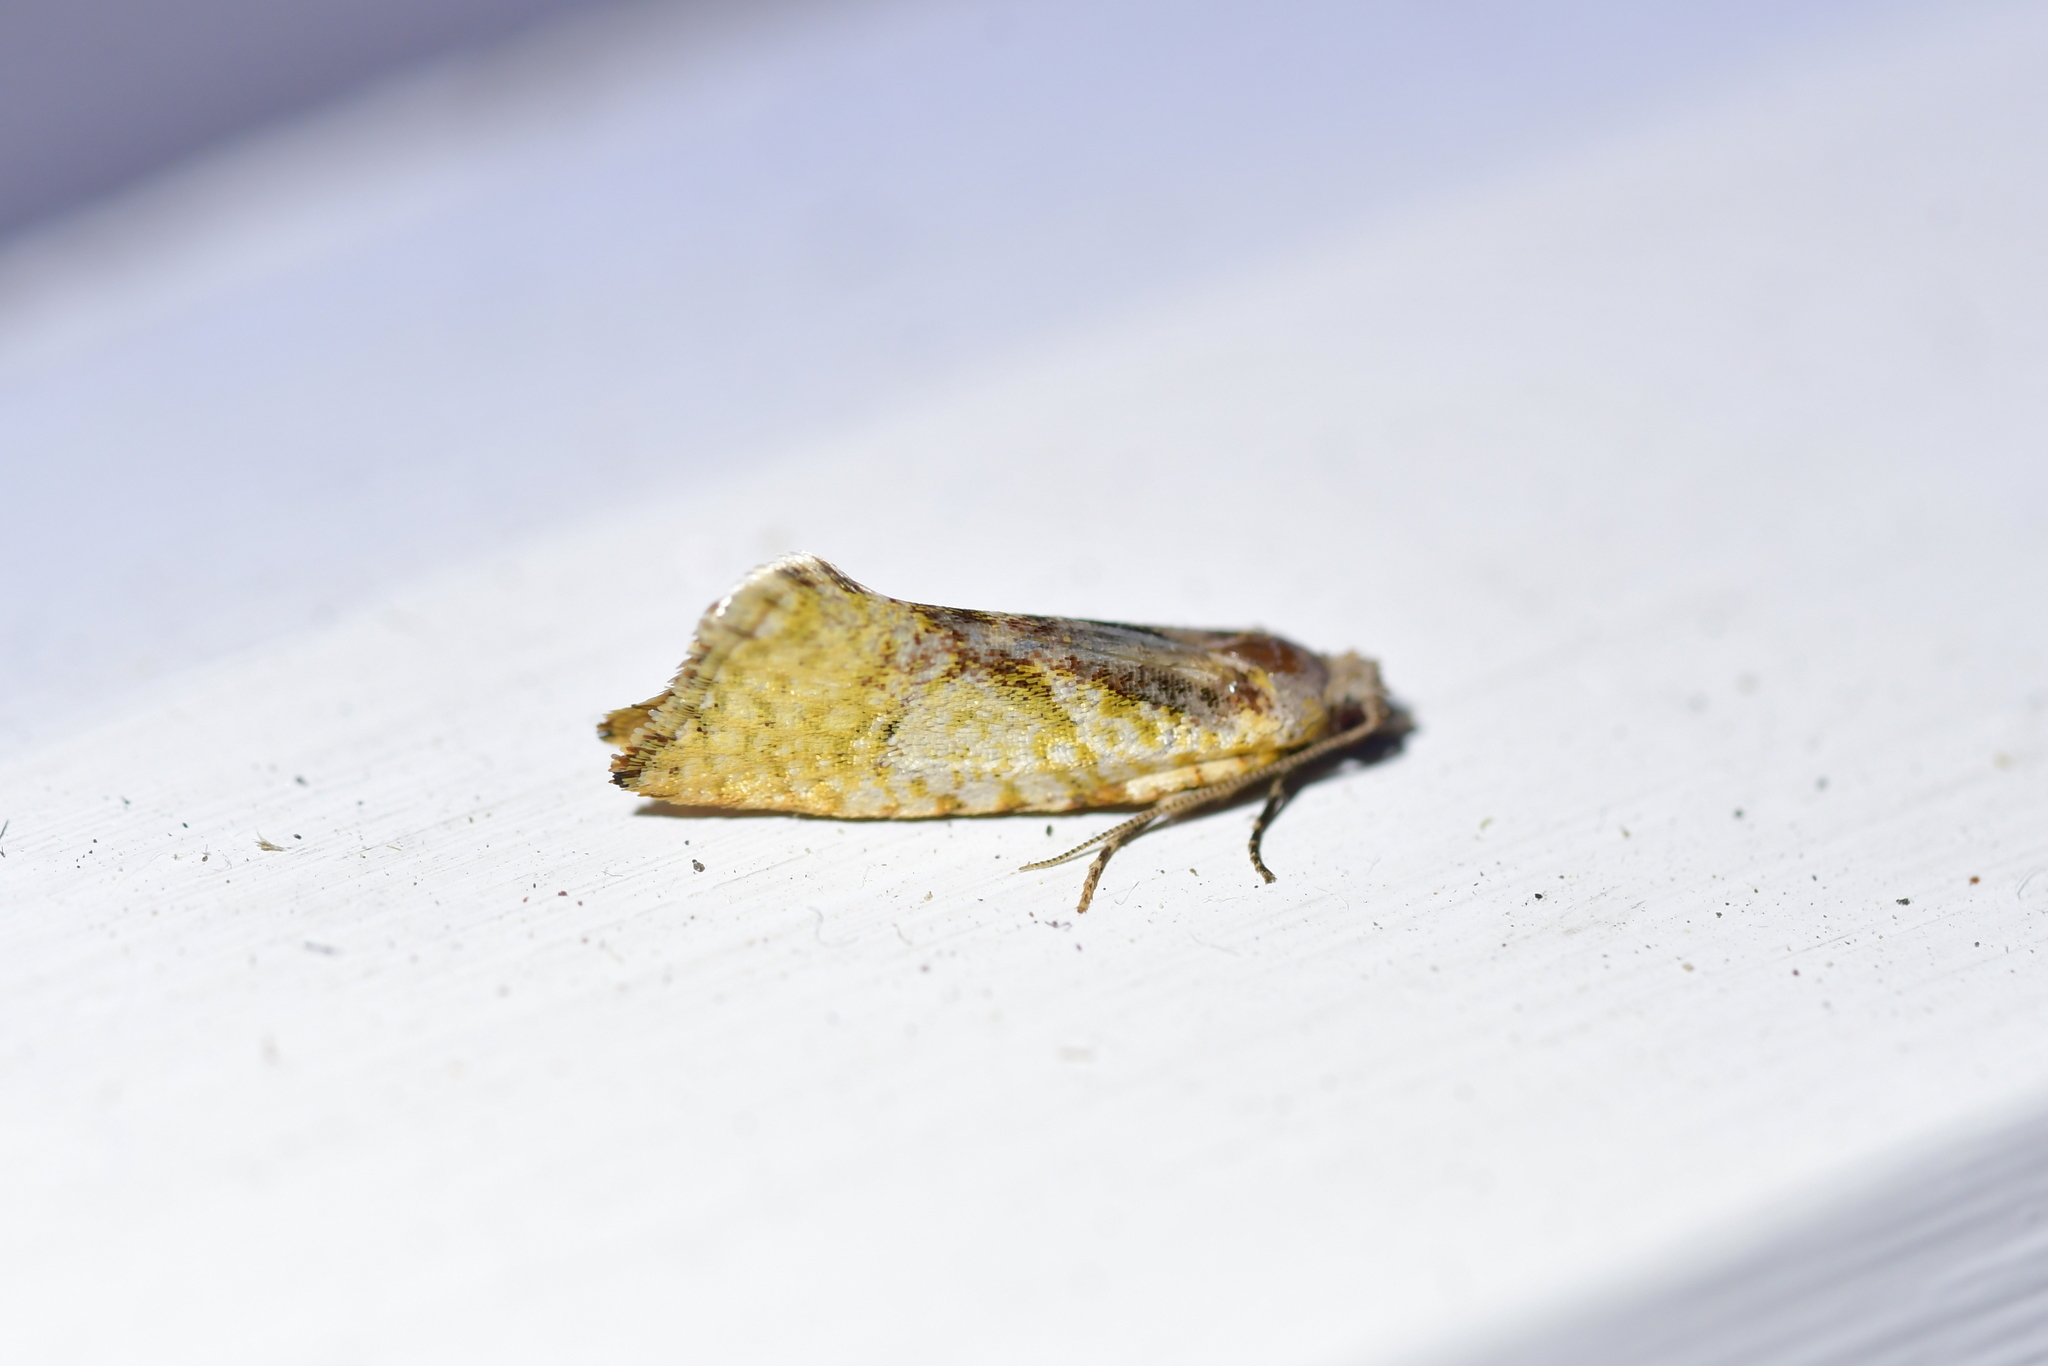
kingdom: Animalia
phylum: Arthropoda
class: Insecta
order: Lepidoptera
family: Tortricidae
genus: Pyrgotis
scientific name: Pyrgotis plagiatana
